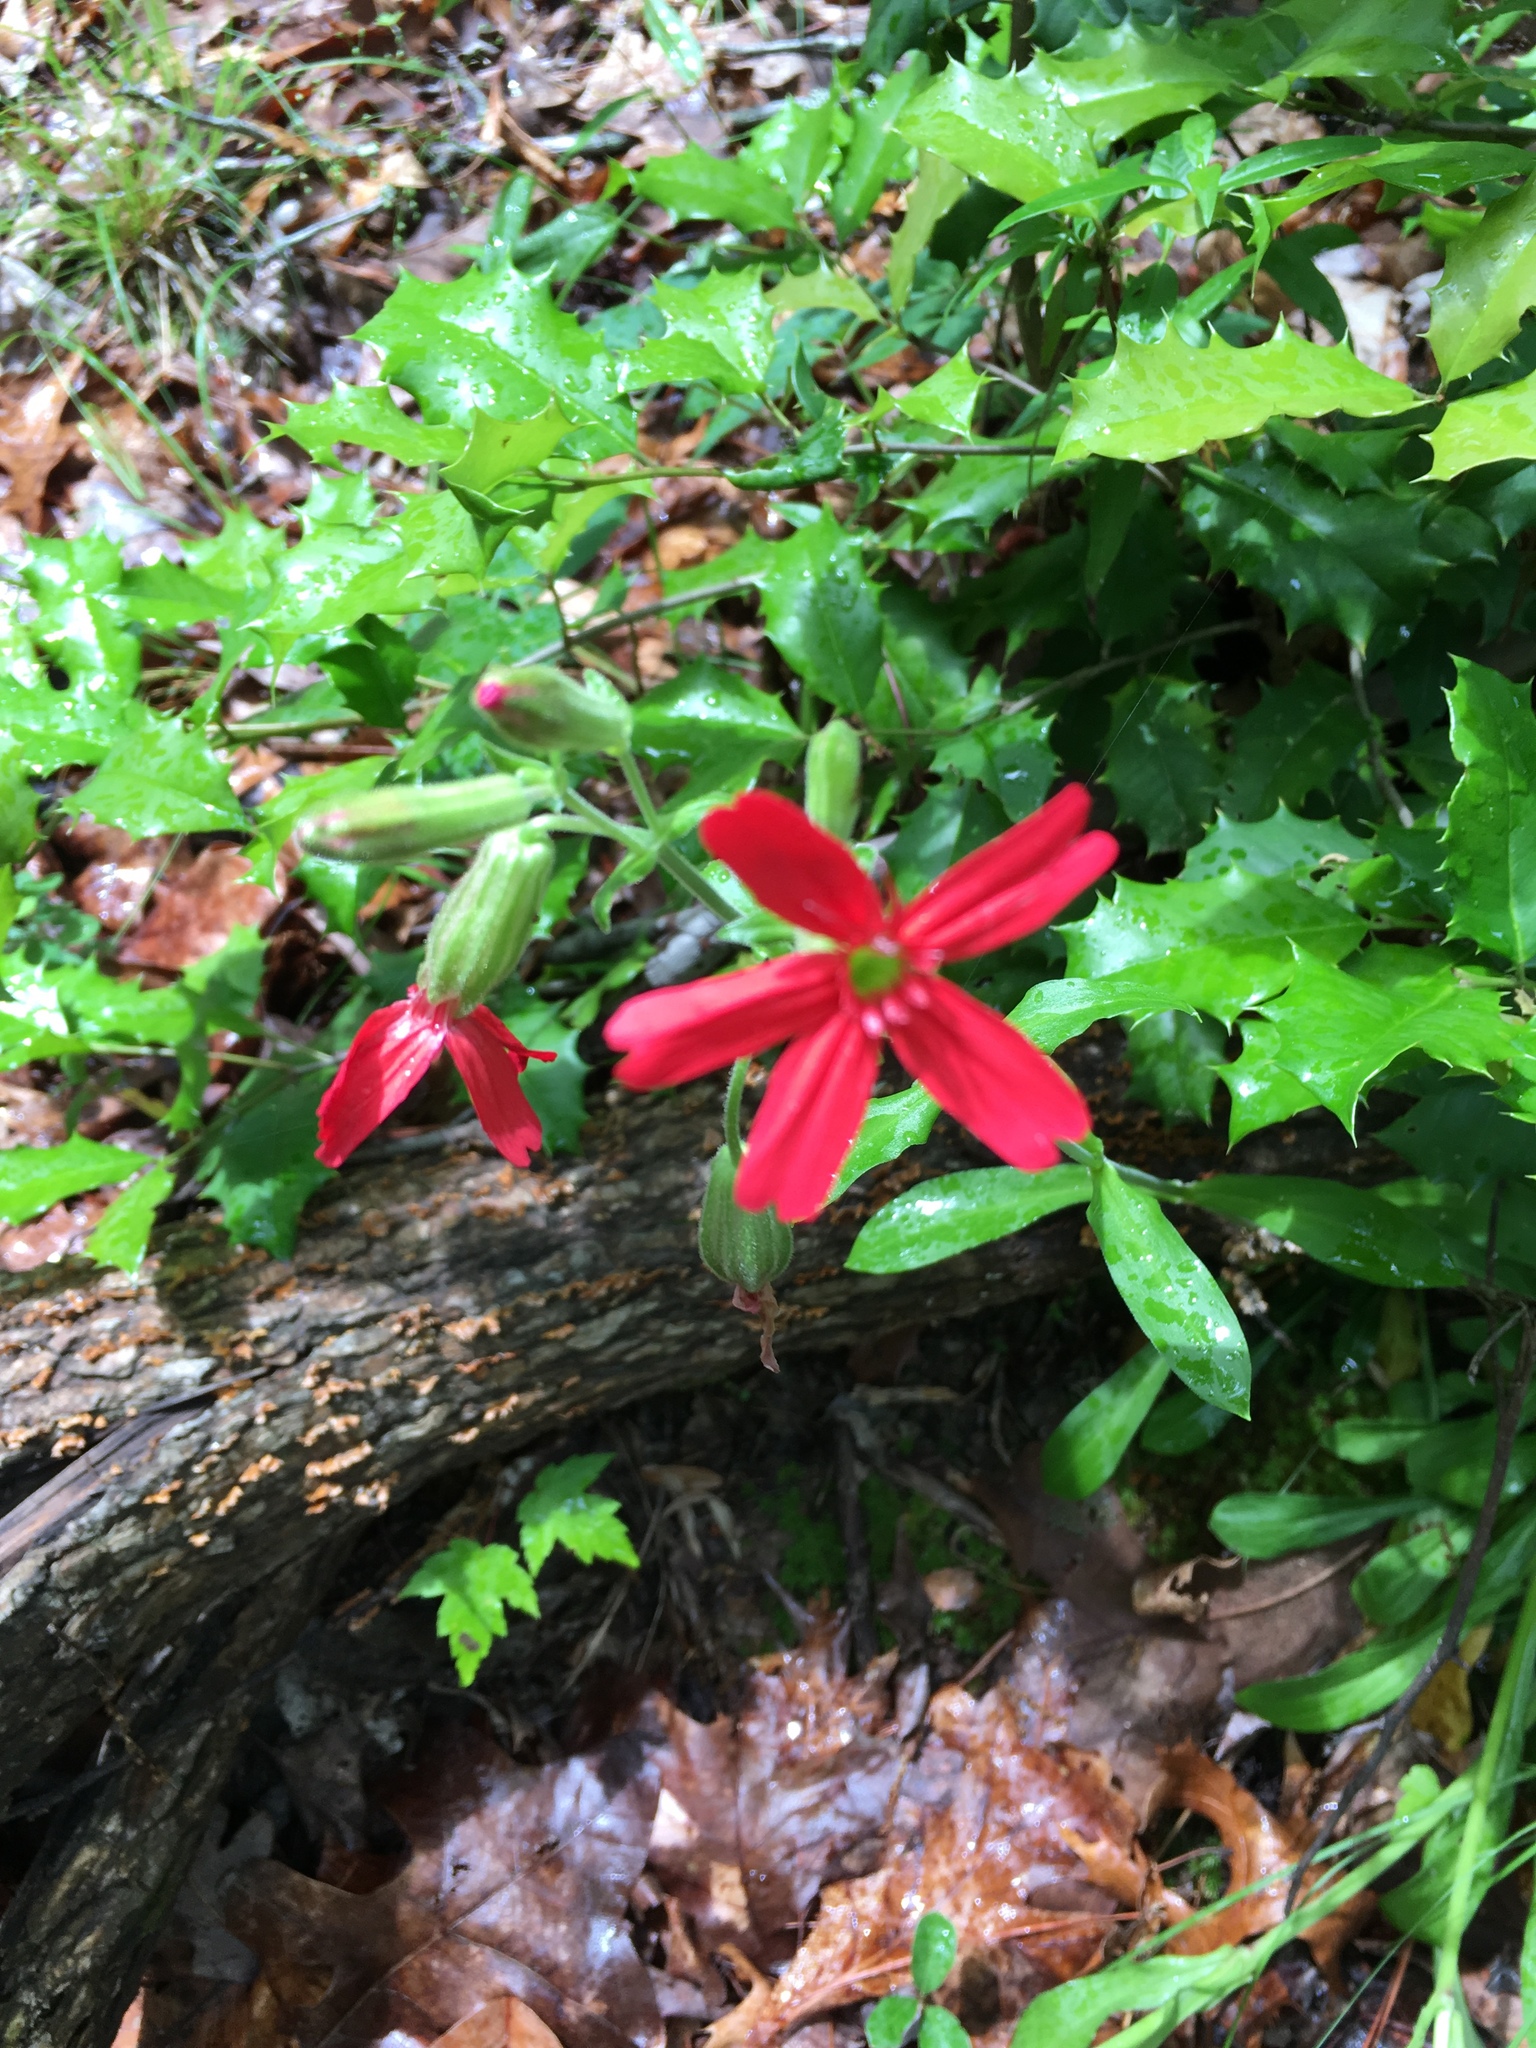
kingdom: Plantae
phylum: Tracheophyta
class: Magnoliopsida
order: Caryophyllales
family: Caryophyllaceae
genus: Silene
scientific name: Silene virginica
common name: Fire-pink
